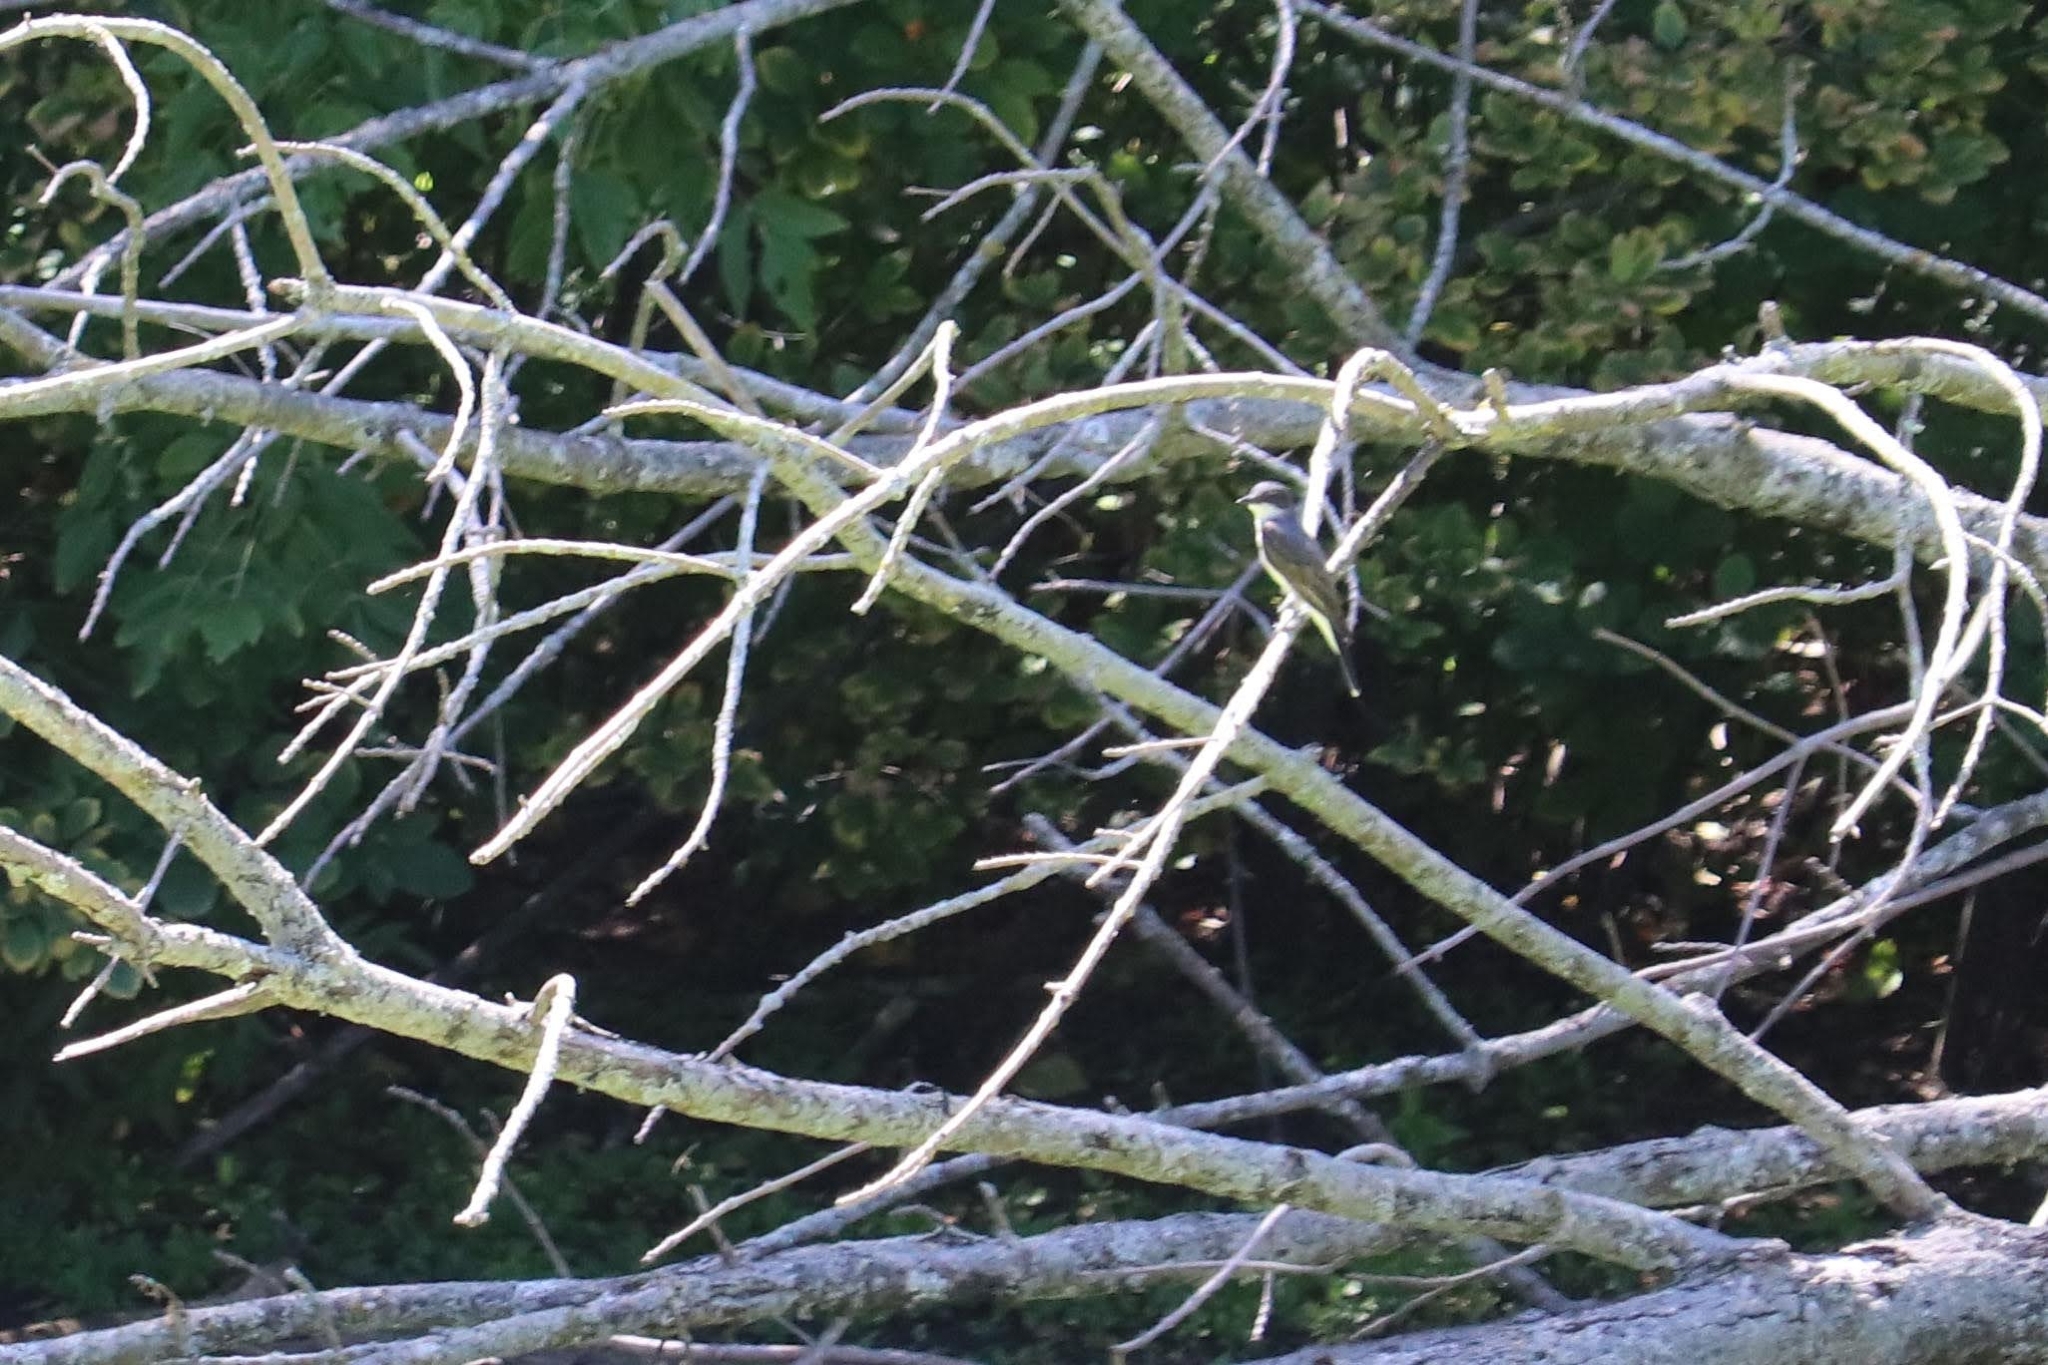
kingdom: Animalia
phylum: Chordata
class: Aves
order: Passeriformes
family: Tyrannidae
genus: Tyrannus
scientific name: Tyrannus tyrannus
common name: Eastern kingbird
